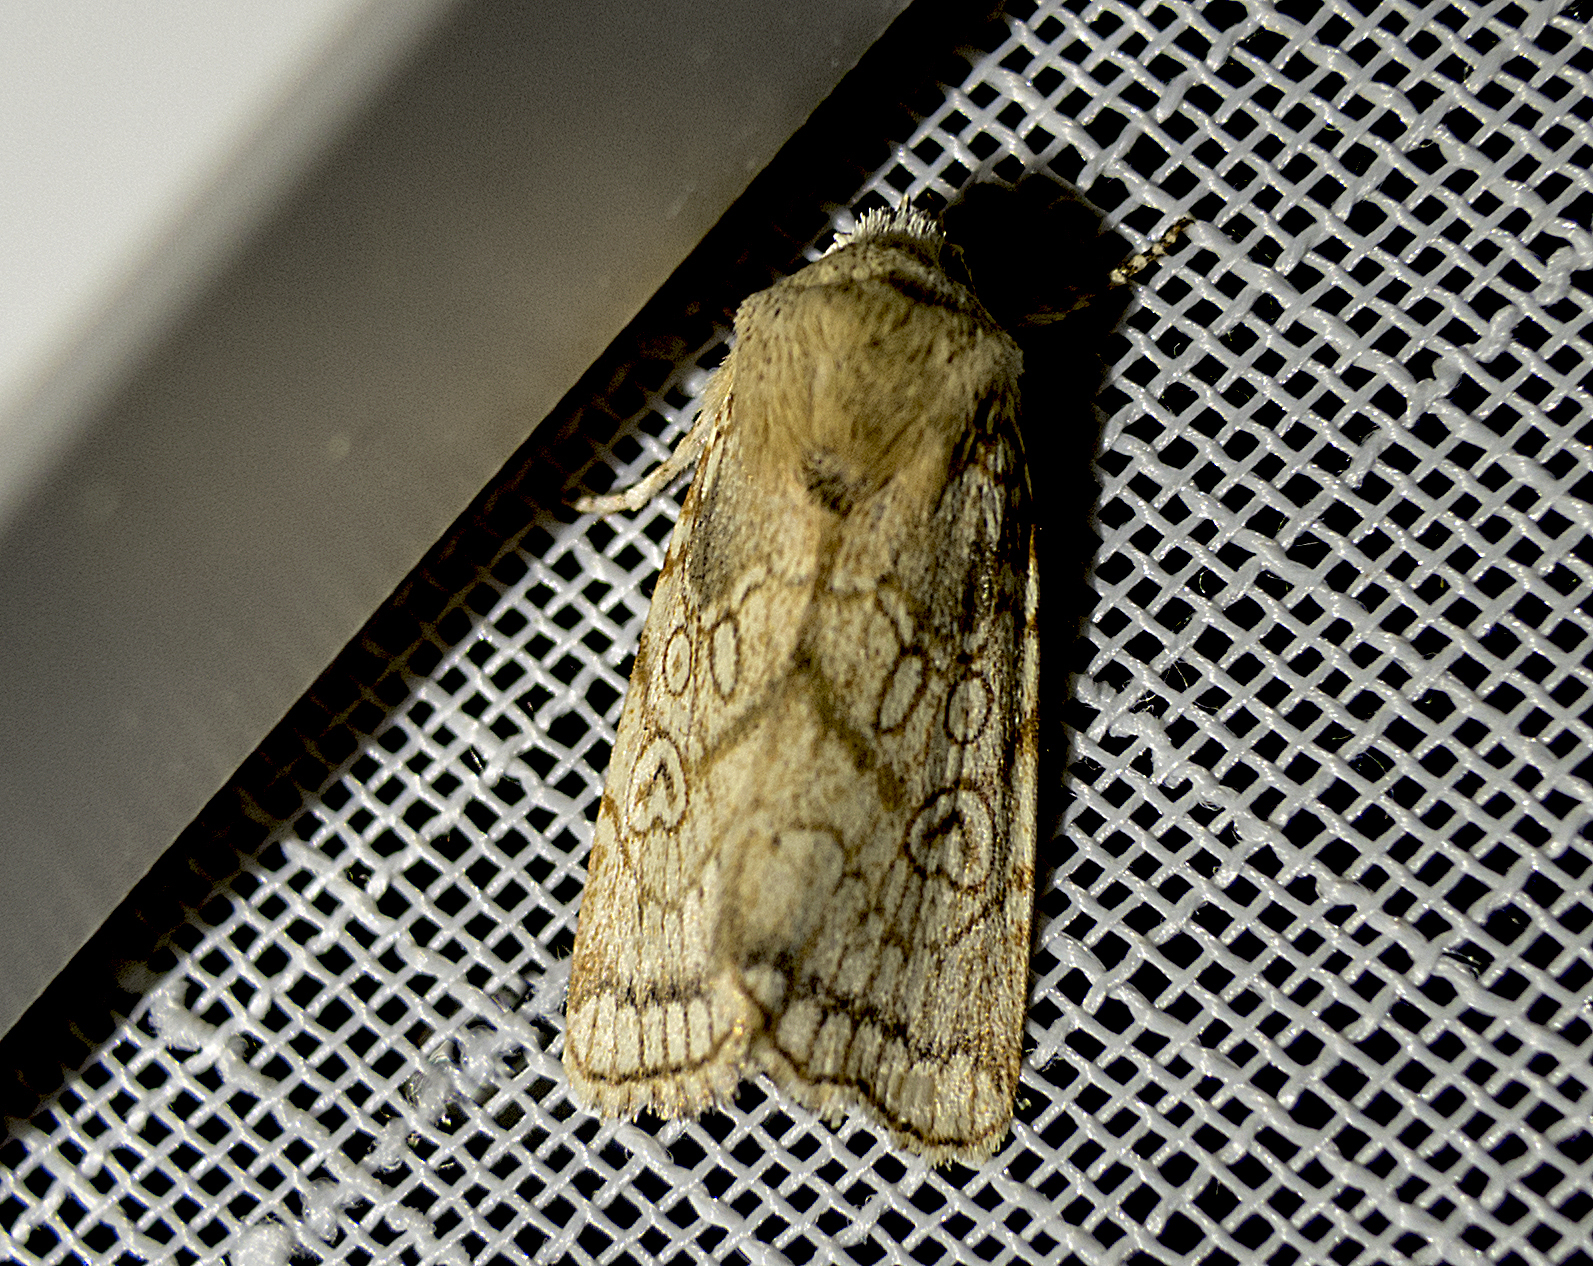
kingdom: Animalia
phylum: Arthropoda
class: Insecta
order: Lepidoptera
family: Noctuidae
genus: Dicycla
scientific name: Dicycla oo
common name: Heart moth
